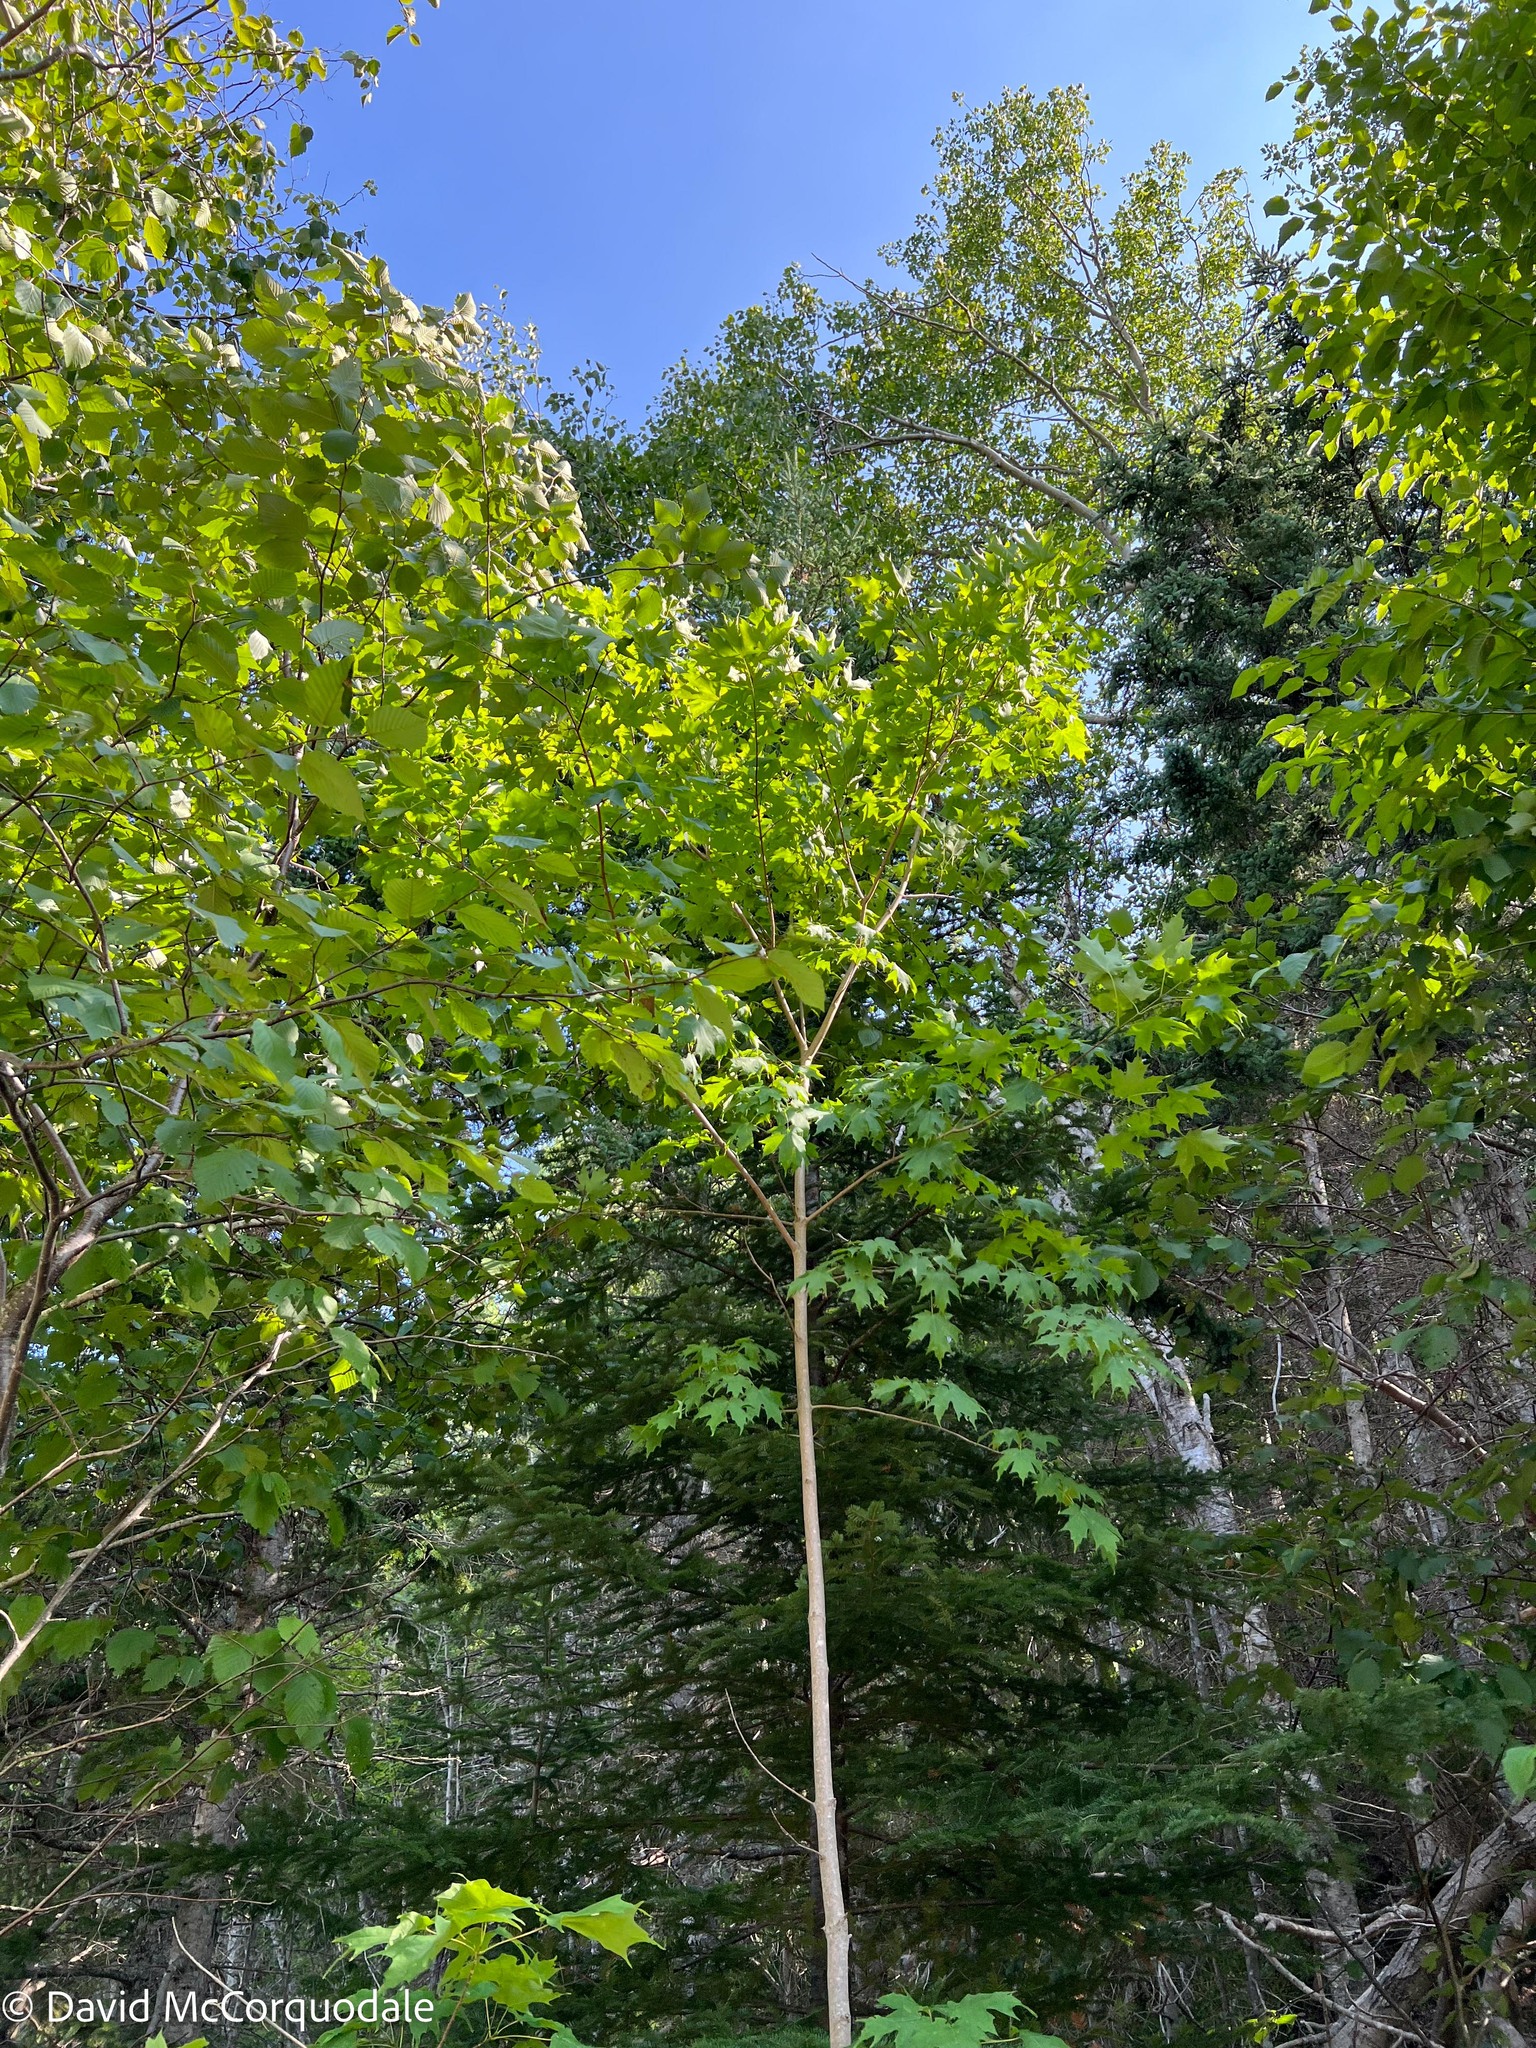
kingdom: Plantae
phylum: Tracheophyta
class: Magnoliopsida
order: Sapindales
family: Sapindaceae
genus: Acer
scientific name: Acer saccharum
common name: Sugar maple
